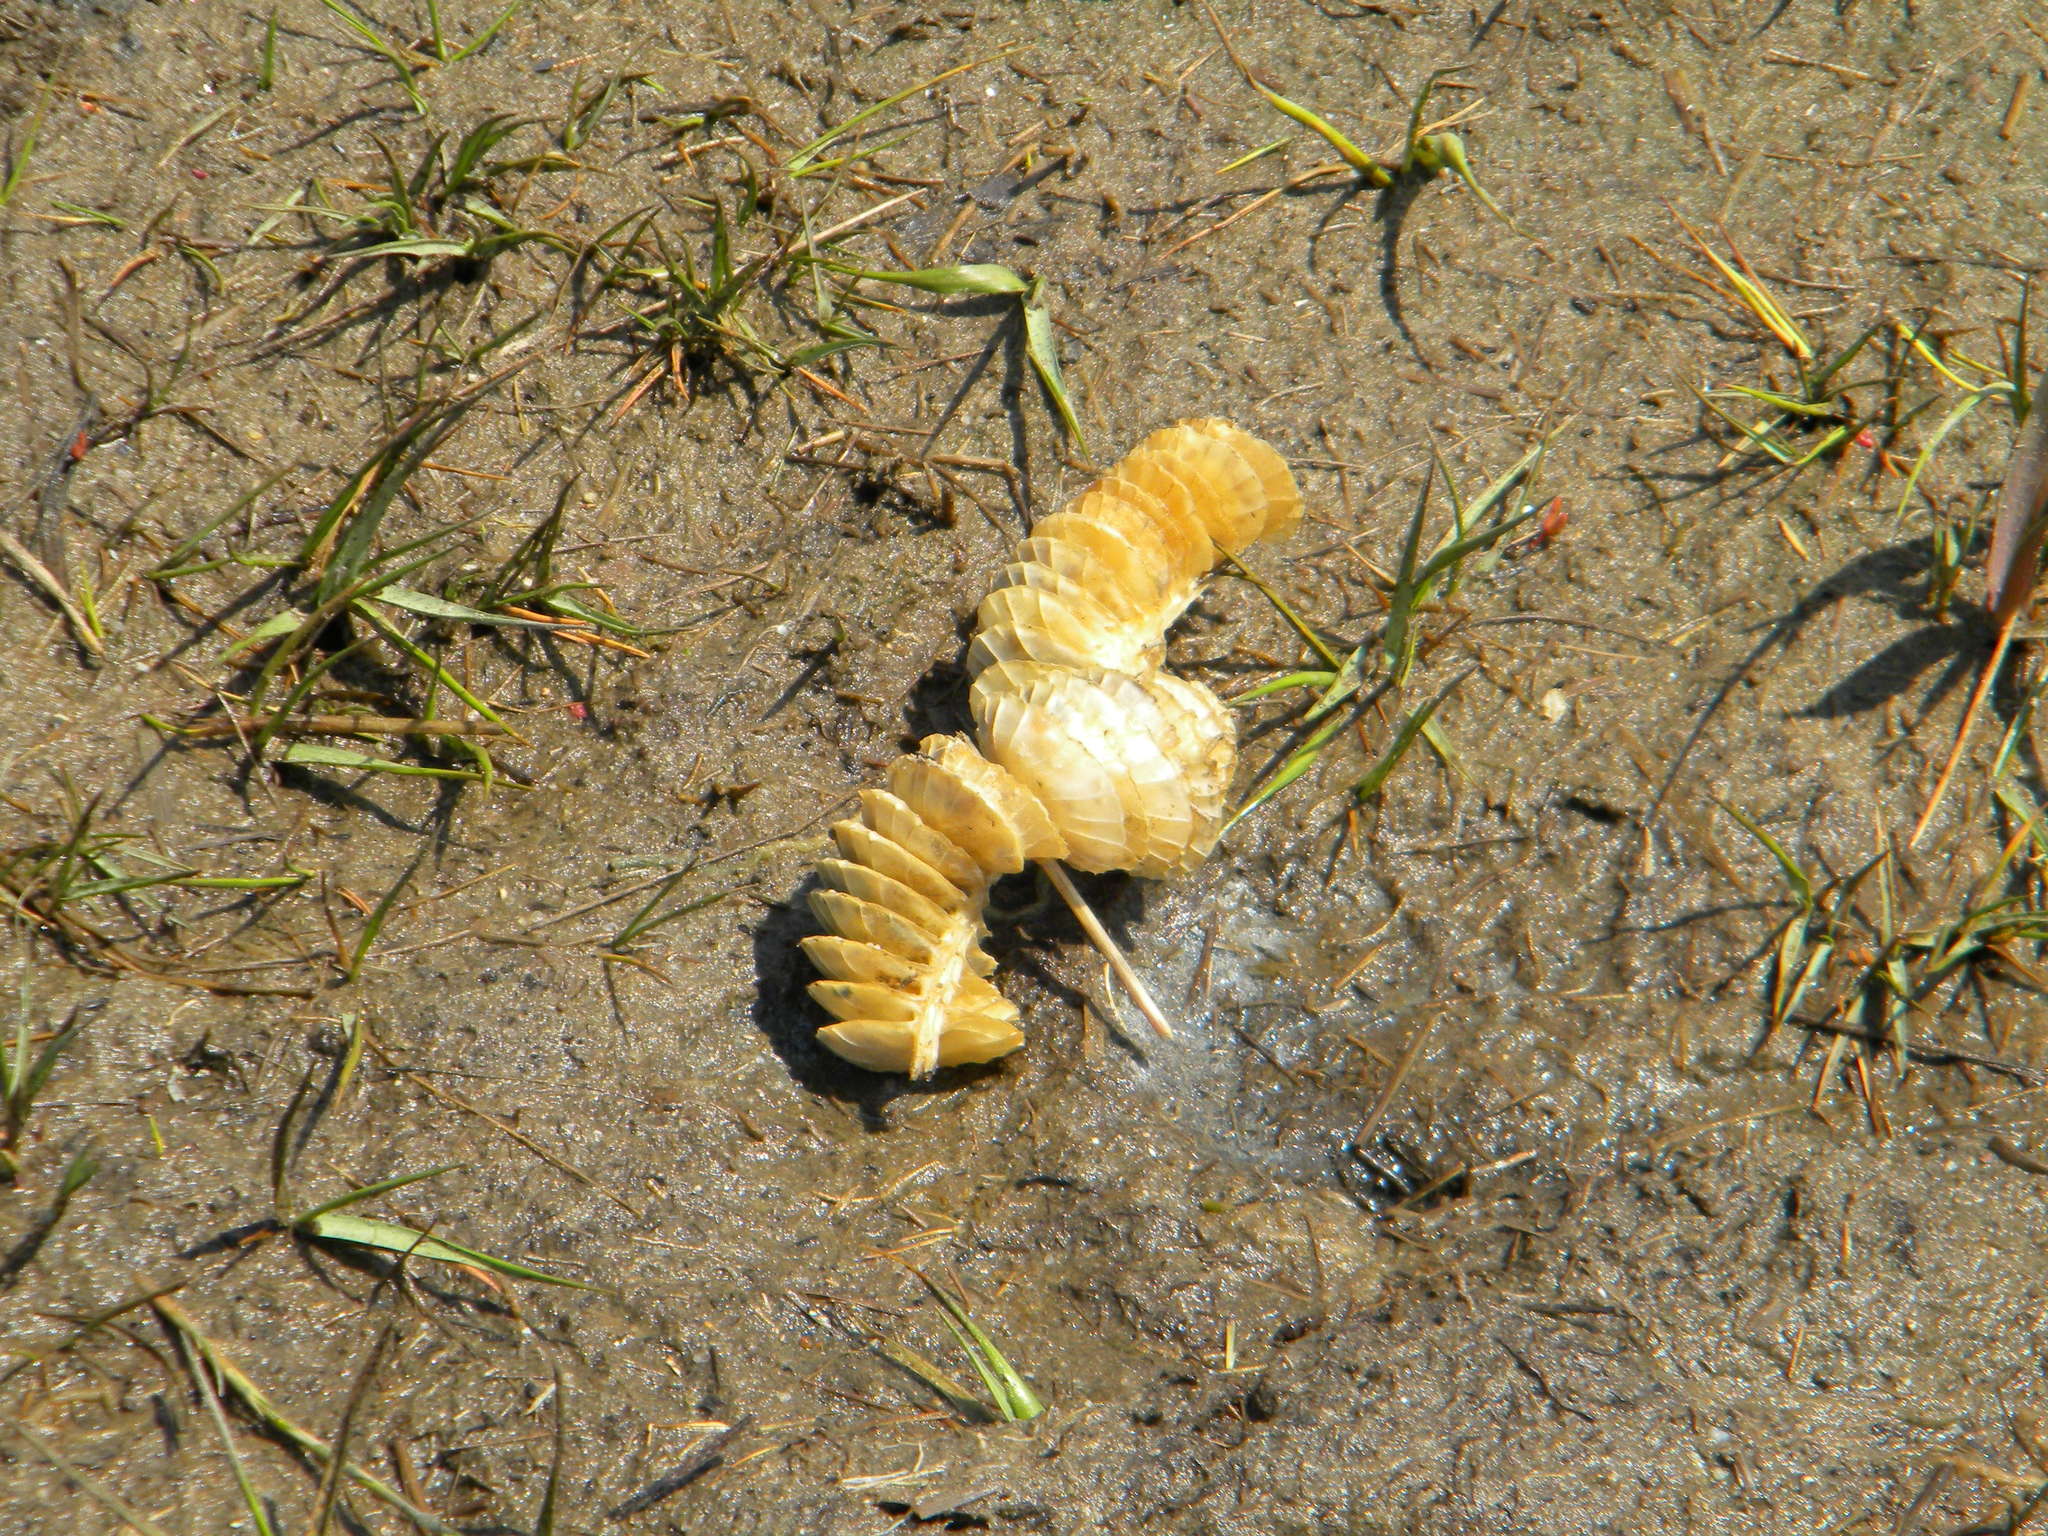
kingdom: Animalia
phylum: Mollusca
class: Gastropoda
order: Neogastropoda
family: Busyconidae
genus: Busycotypus
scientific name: Busycotypus canaliculatus
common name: Channeled whelk
